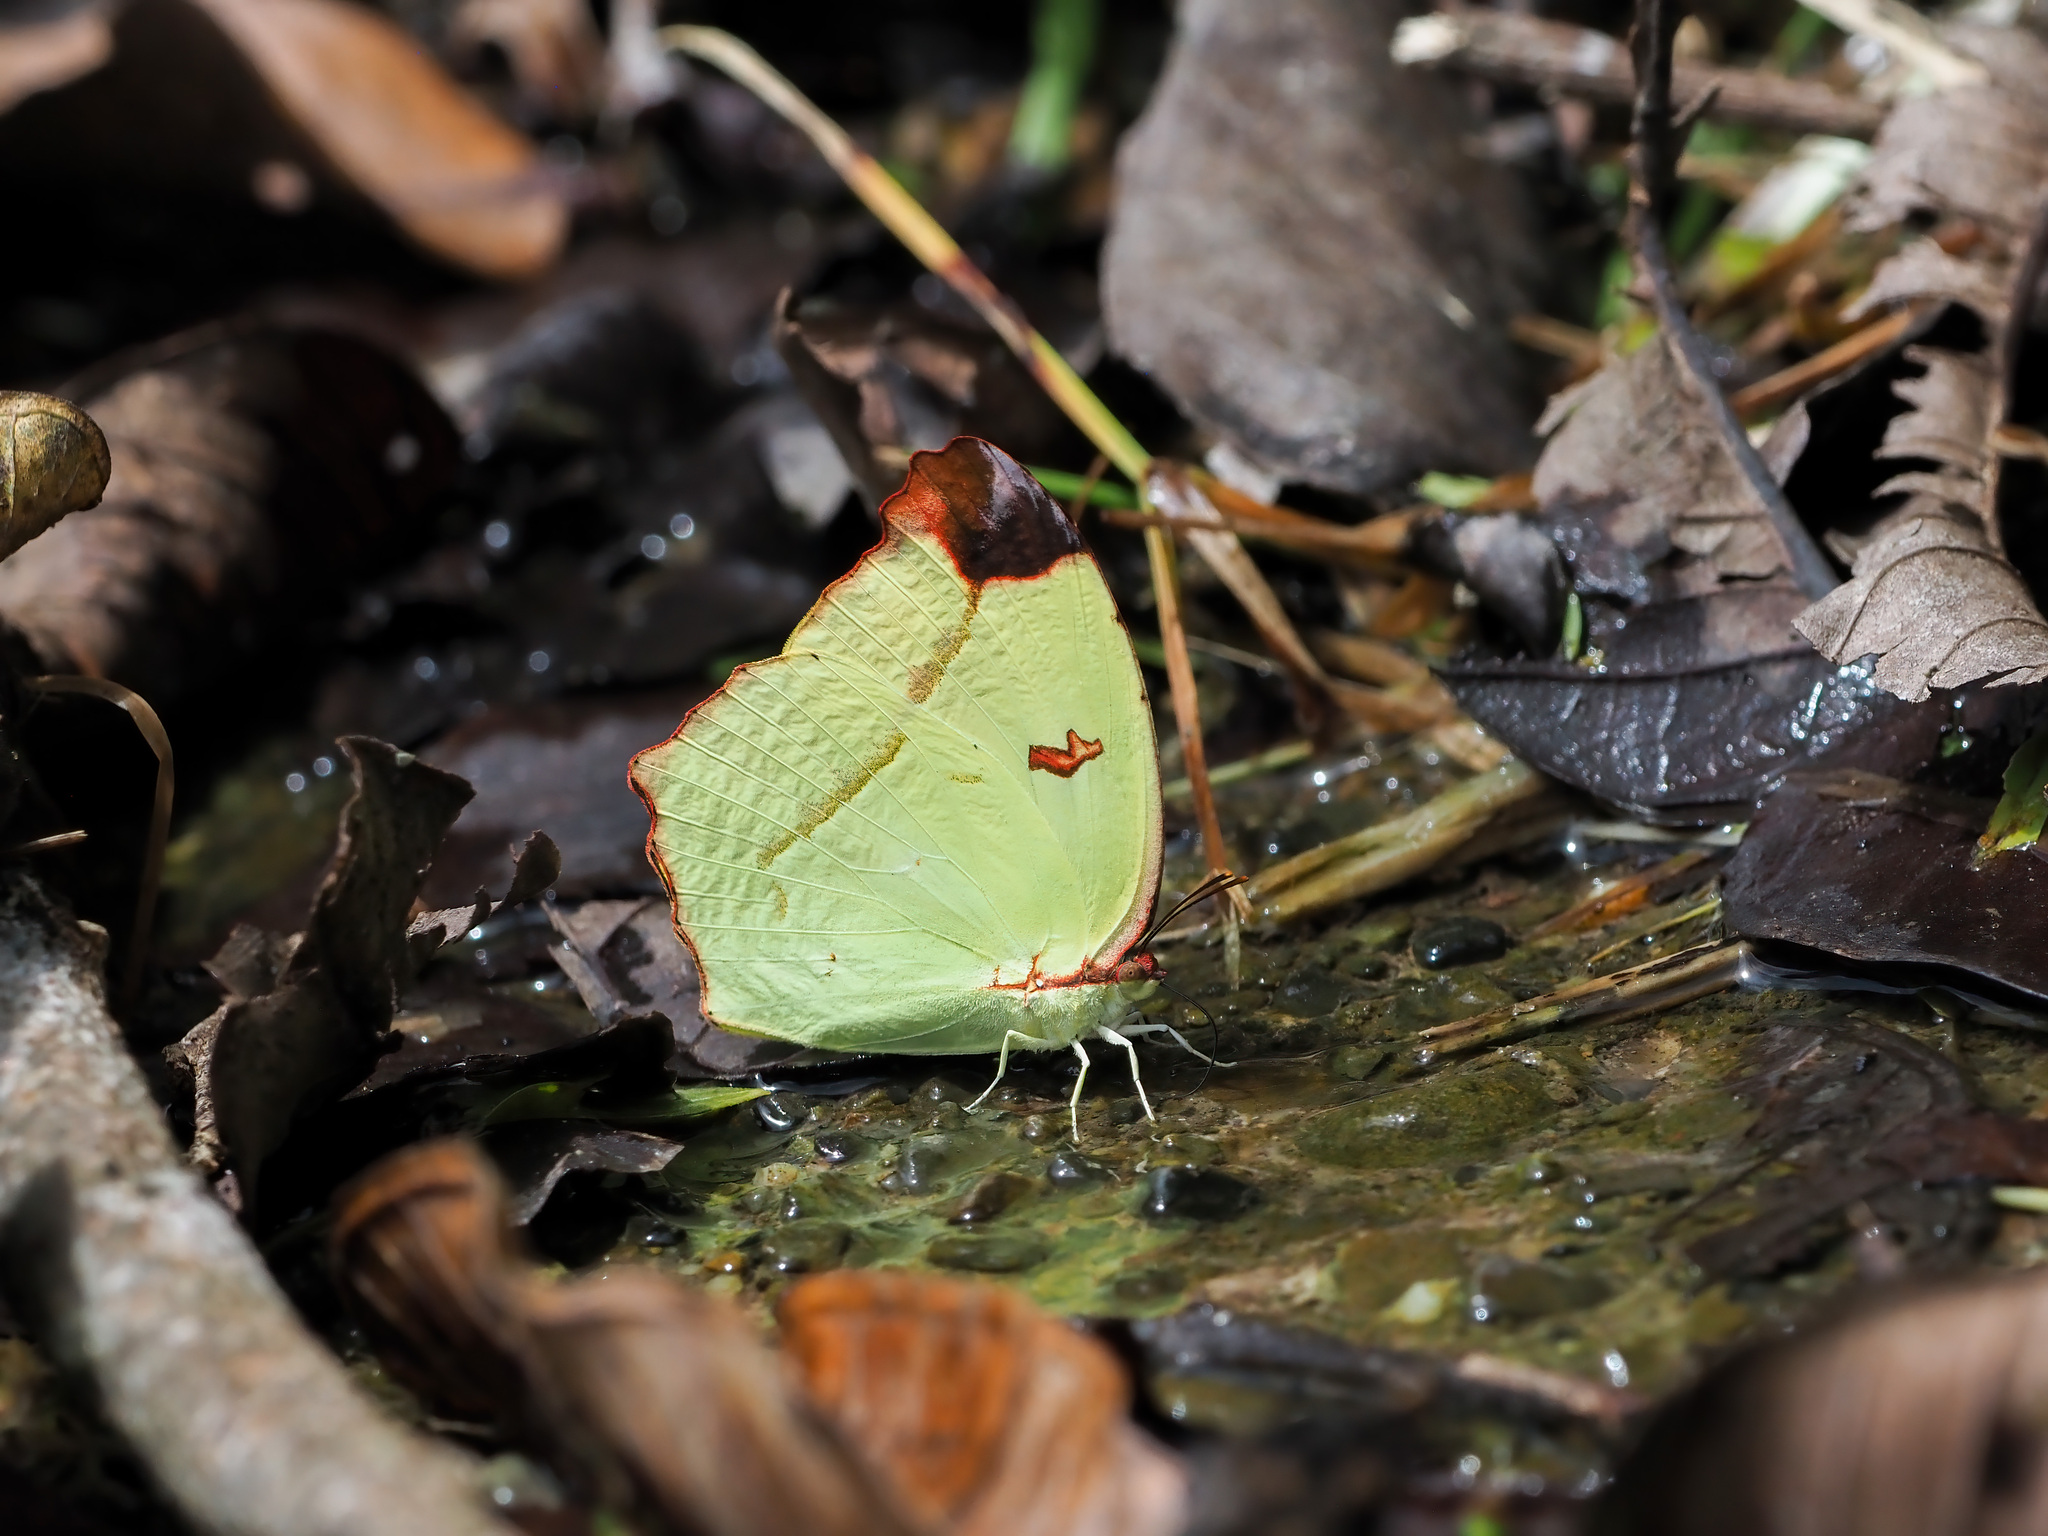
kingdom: Animalia
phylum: Arthropoda
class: Insecta
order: Lepidoptera
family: Pieridae
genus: Dercas
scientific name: Dercas gobrias
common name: Angled sulfur
